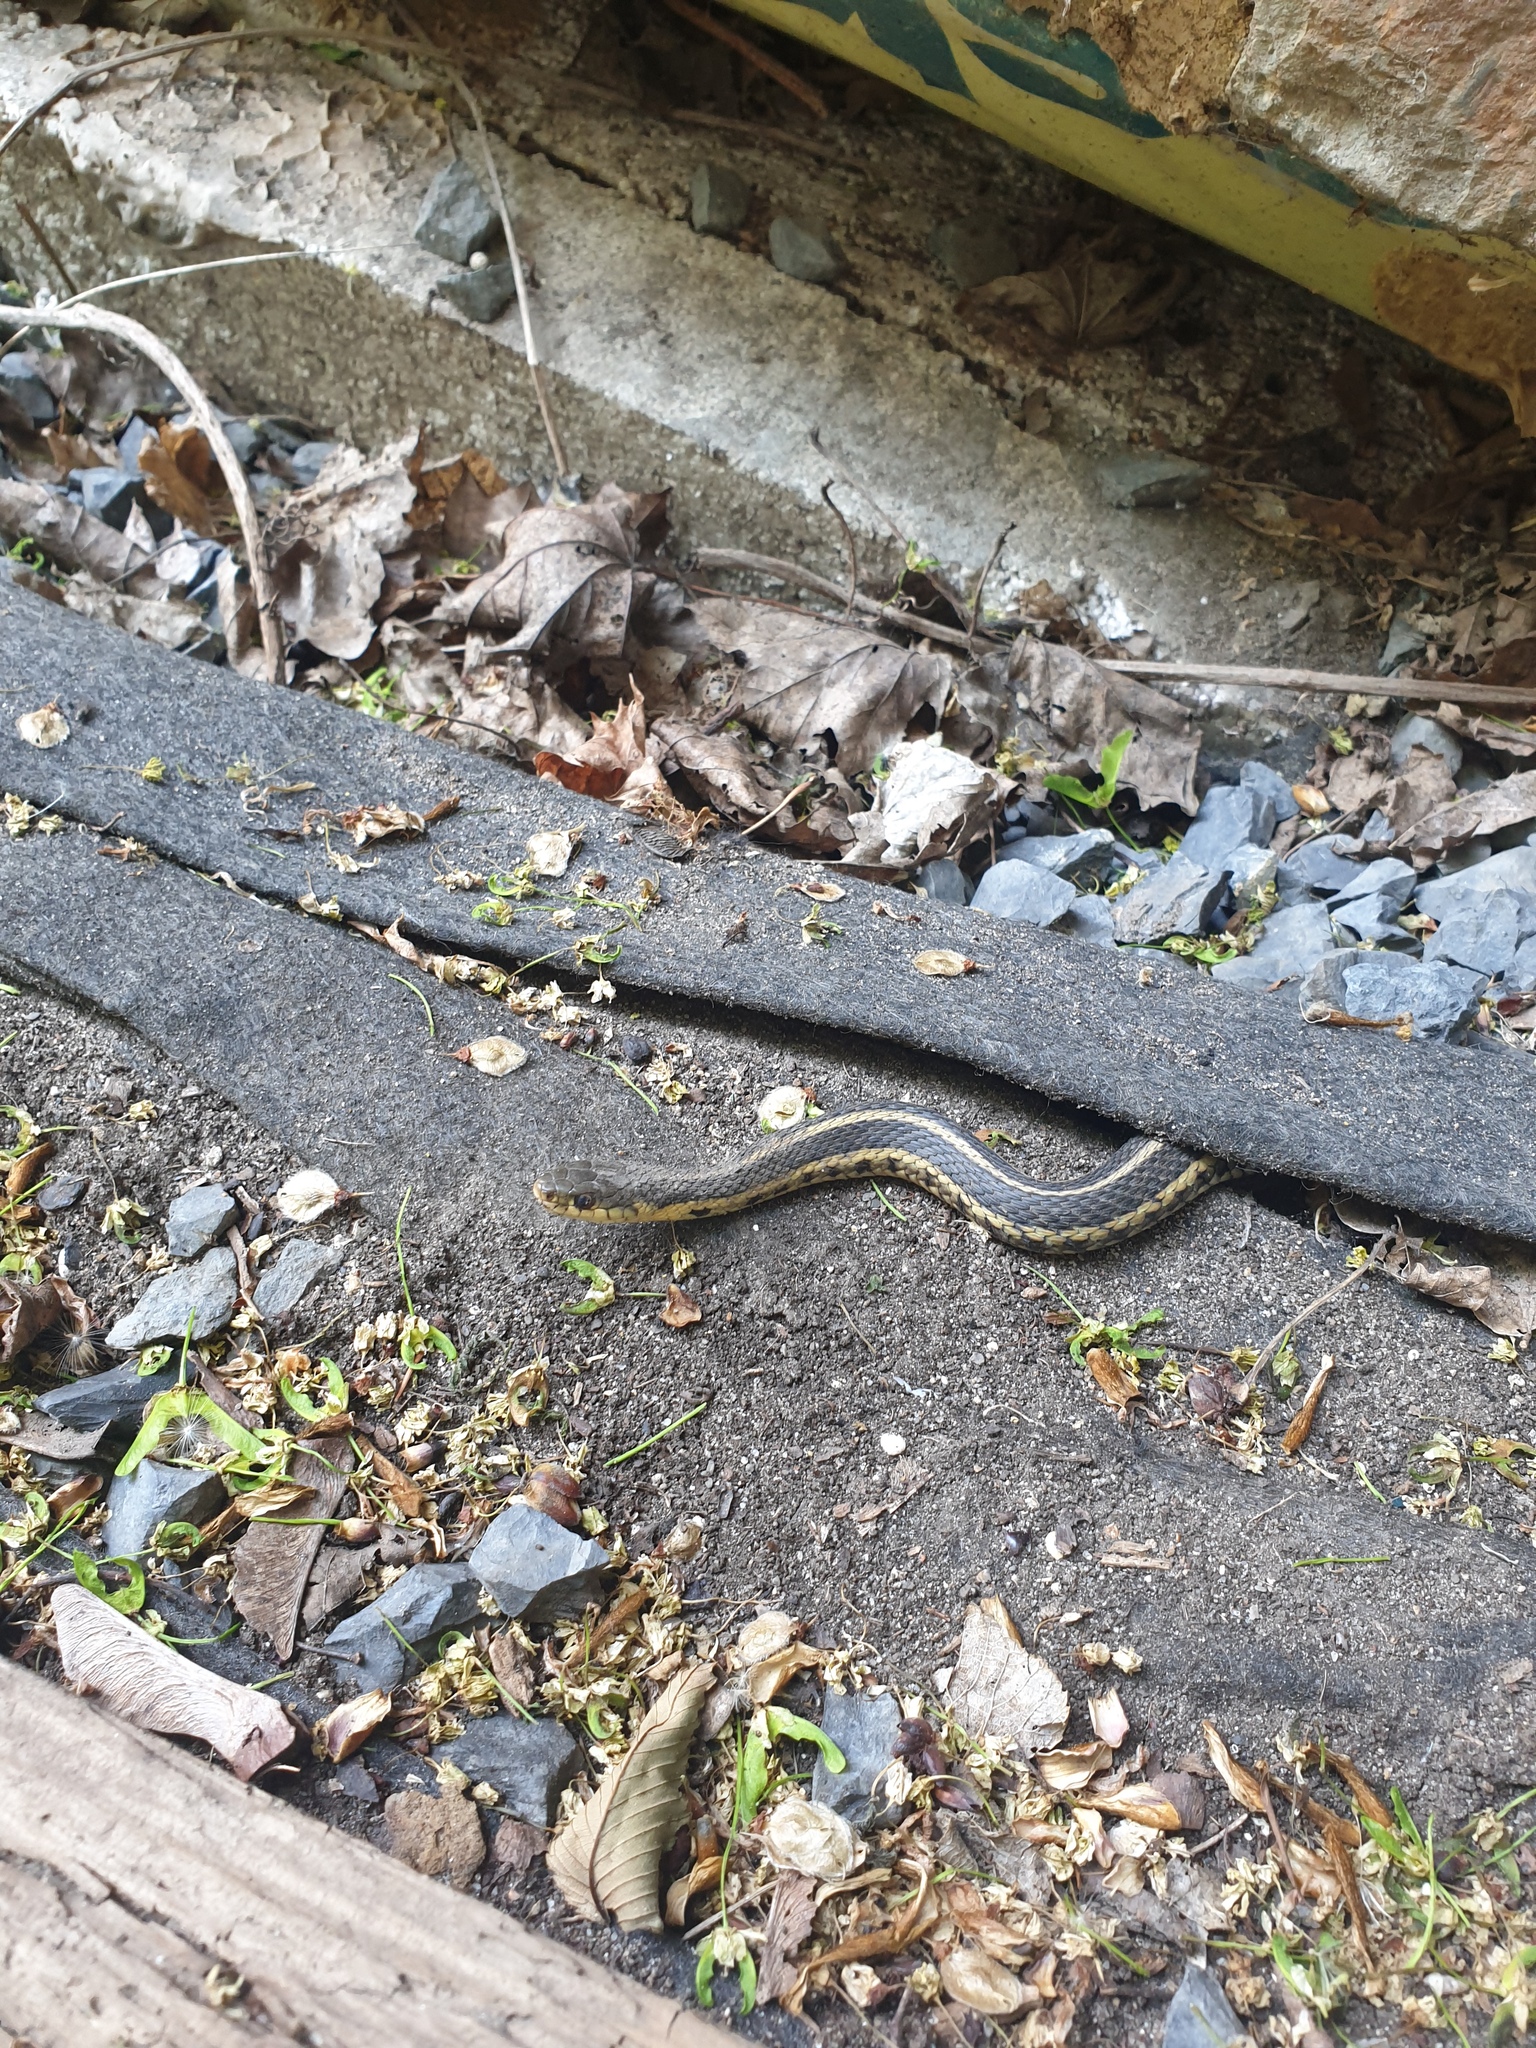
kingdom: Animalia
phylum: Chordata
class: Squamata
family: Colubridae
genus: Thamnophis
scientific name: Thamnophis sirtalis
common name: Common garter snake
